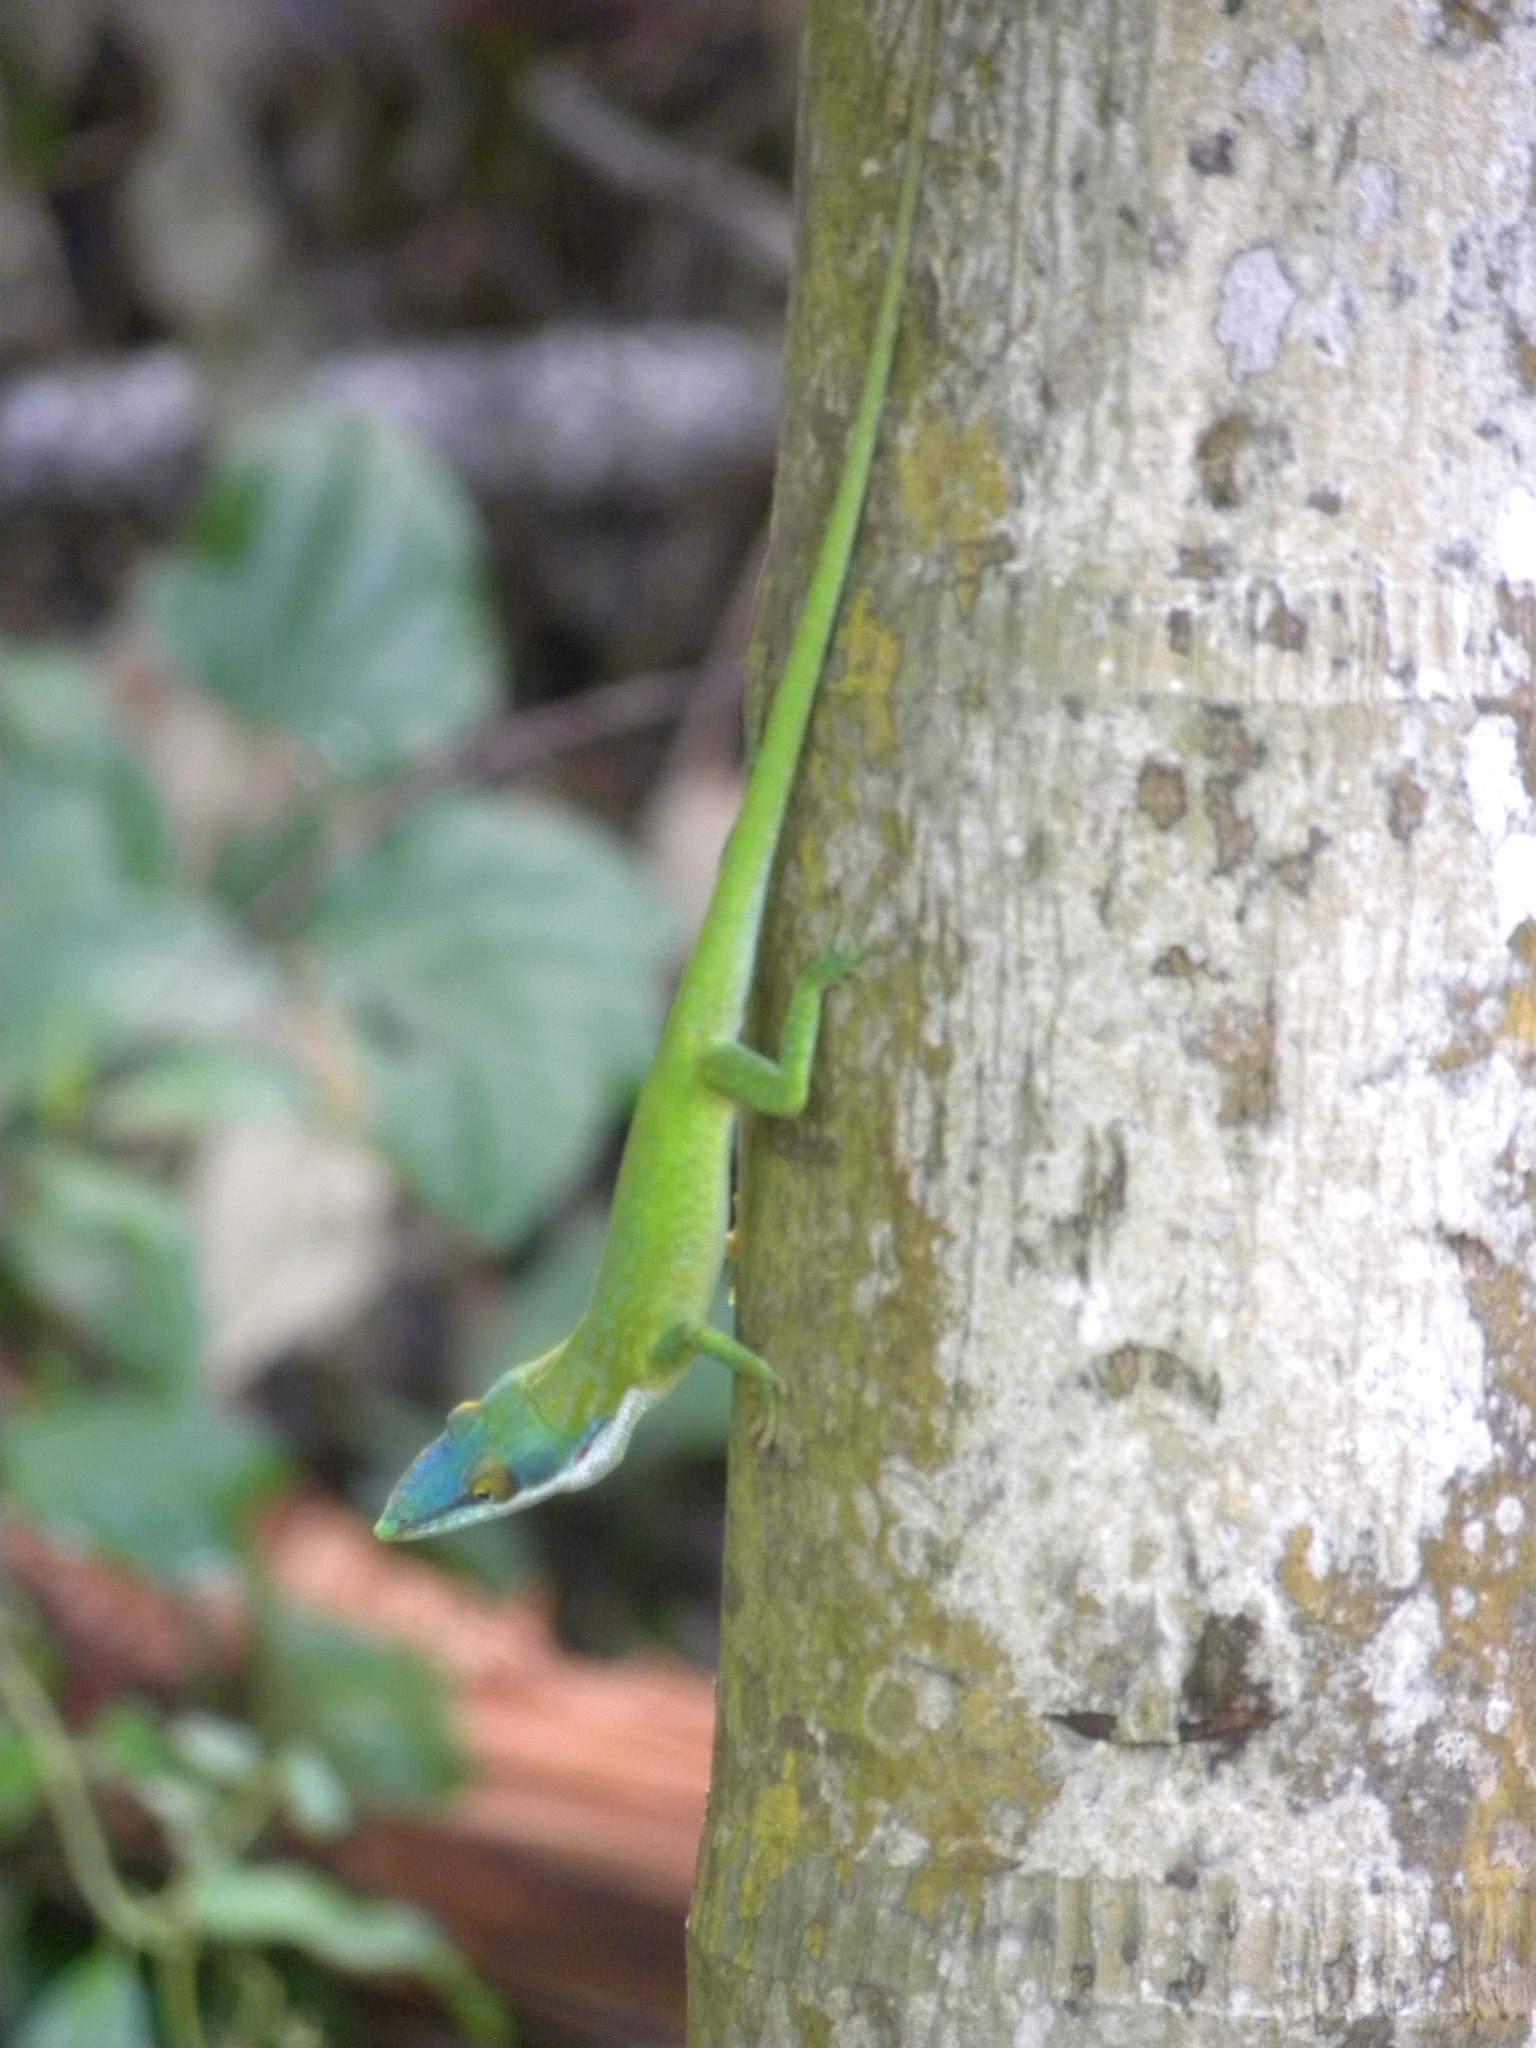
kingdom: Animalia
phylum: Chordata
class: Squamata
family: Dactyloidae
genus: Anolis
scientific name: Anolis allisoni
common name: Allison's anole
